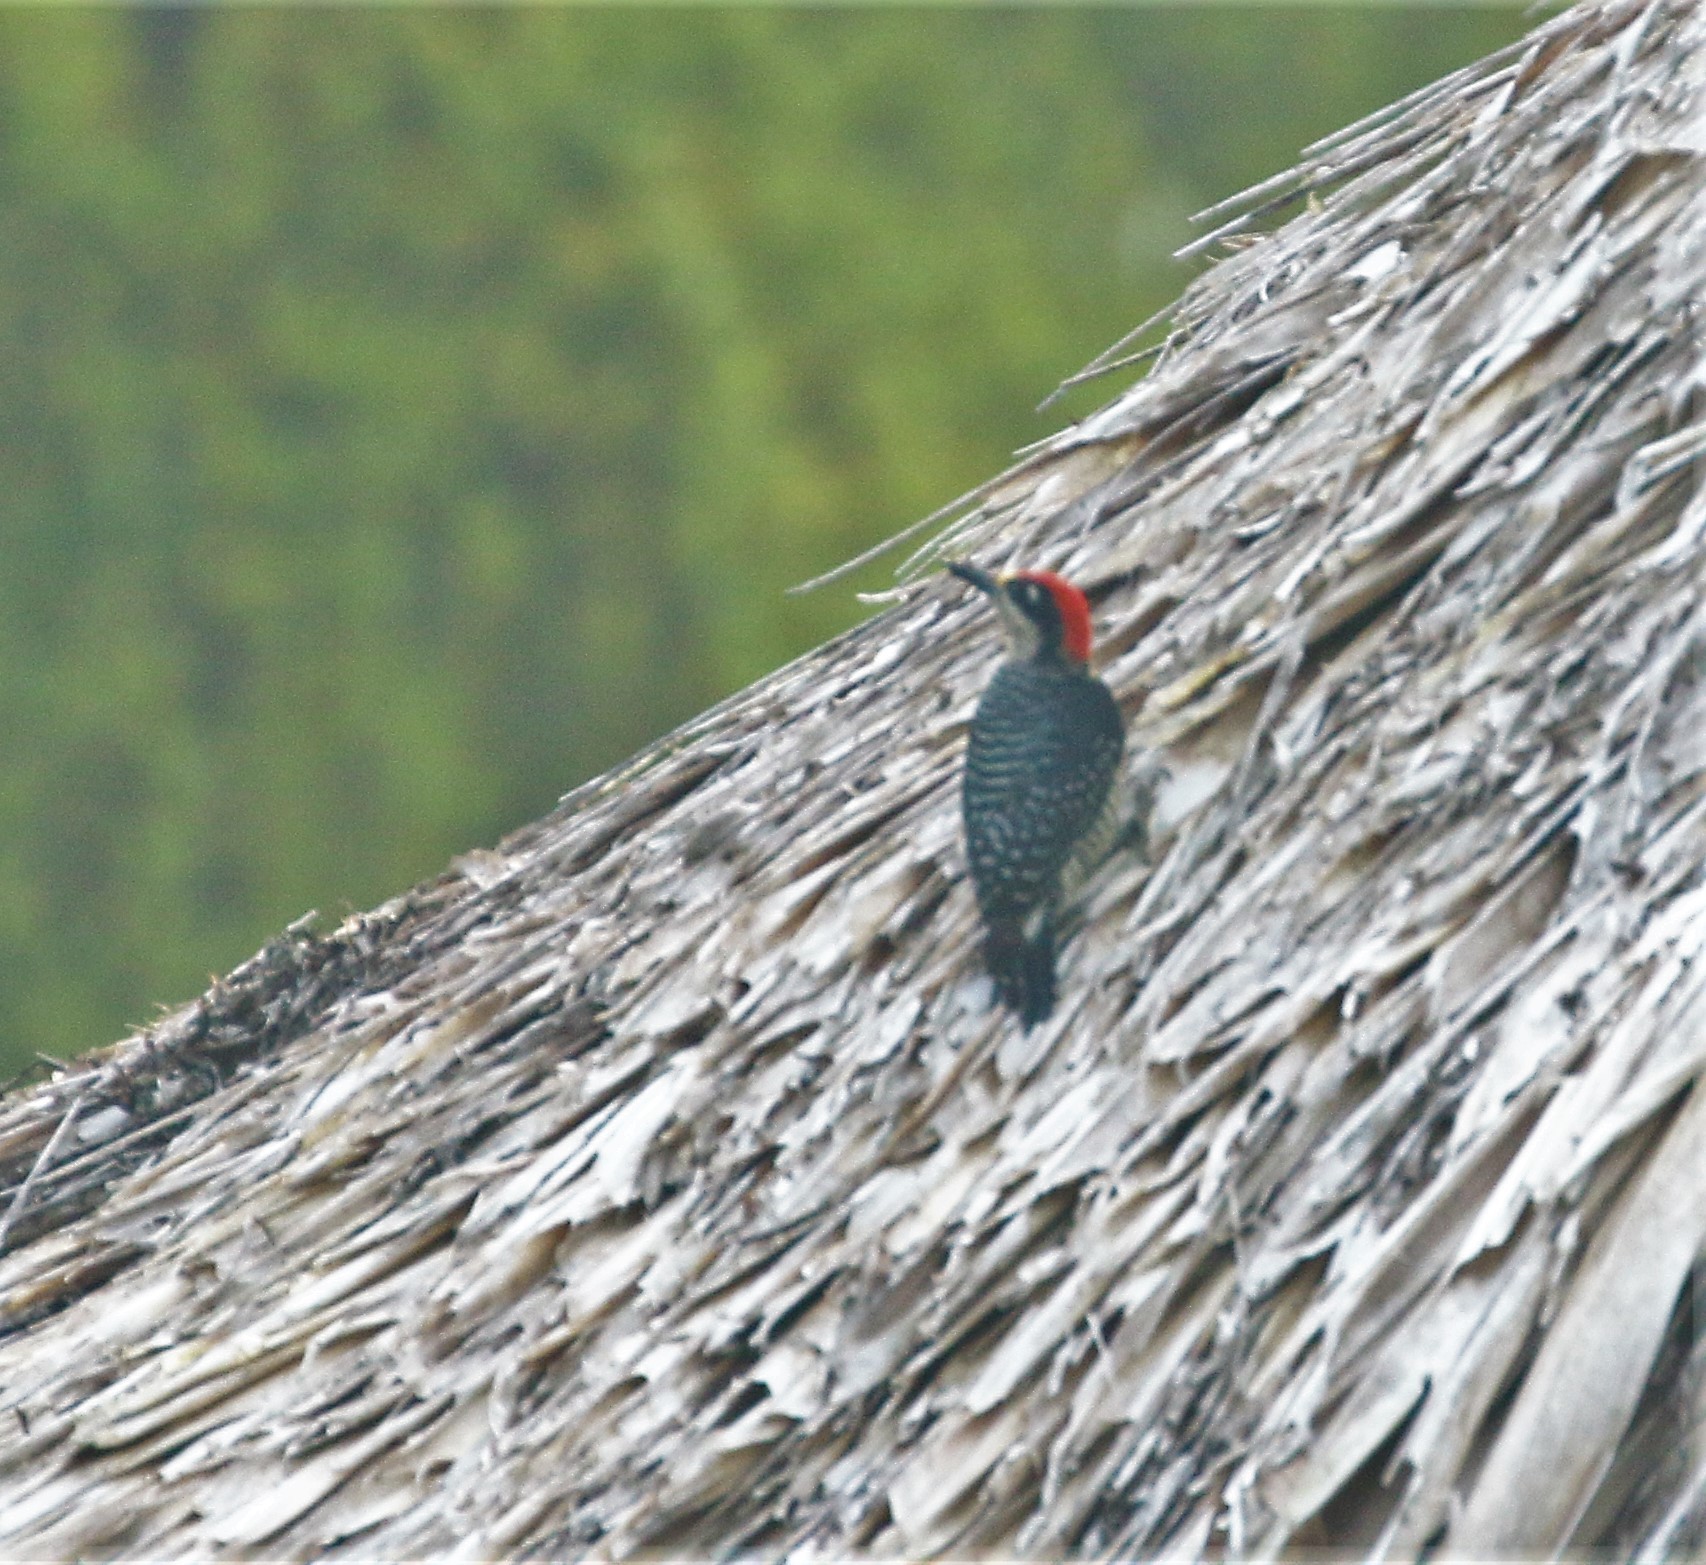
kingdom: Animalia
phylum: Chordata
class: Aves
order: Piciformes
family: Picidae
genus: Melanerpes
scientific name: Melanerpes pucherani
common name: Black-cheeked woodpecker
